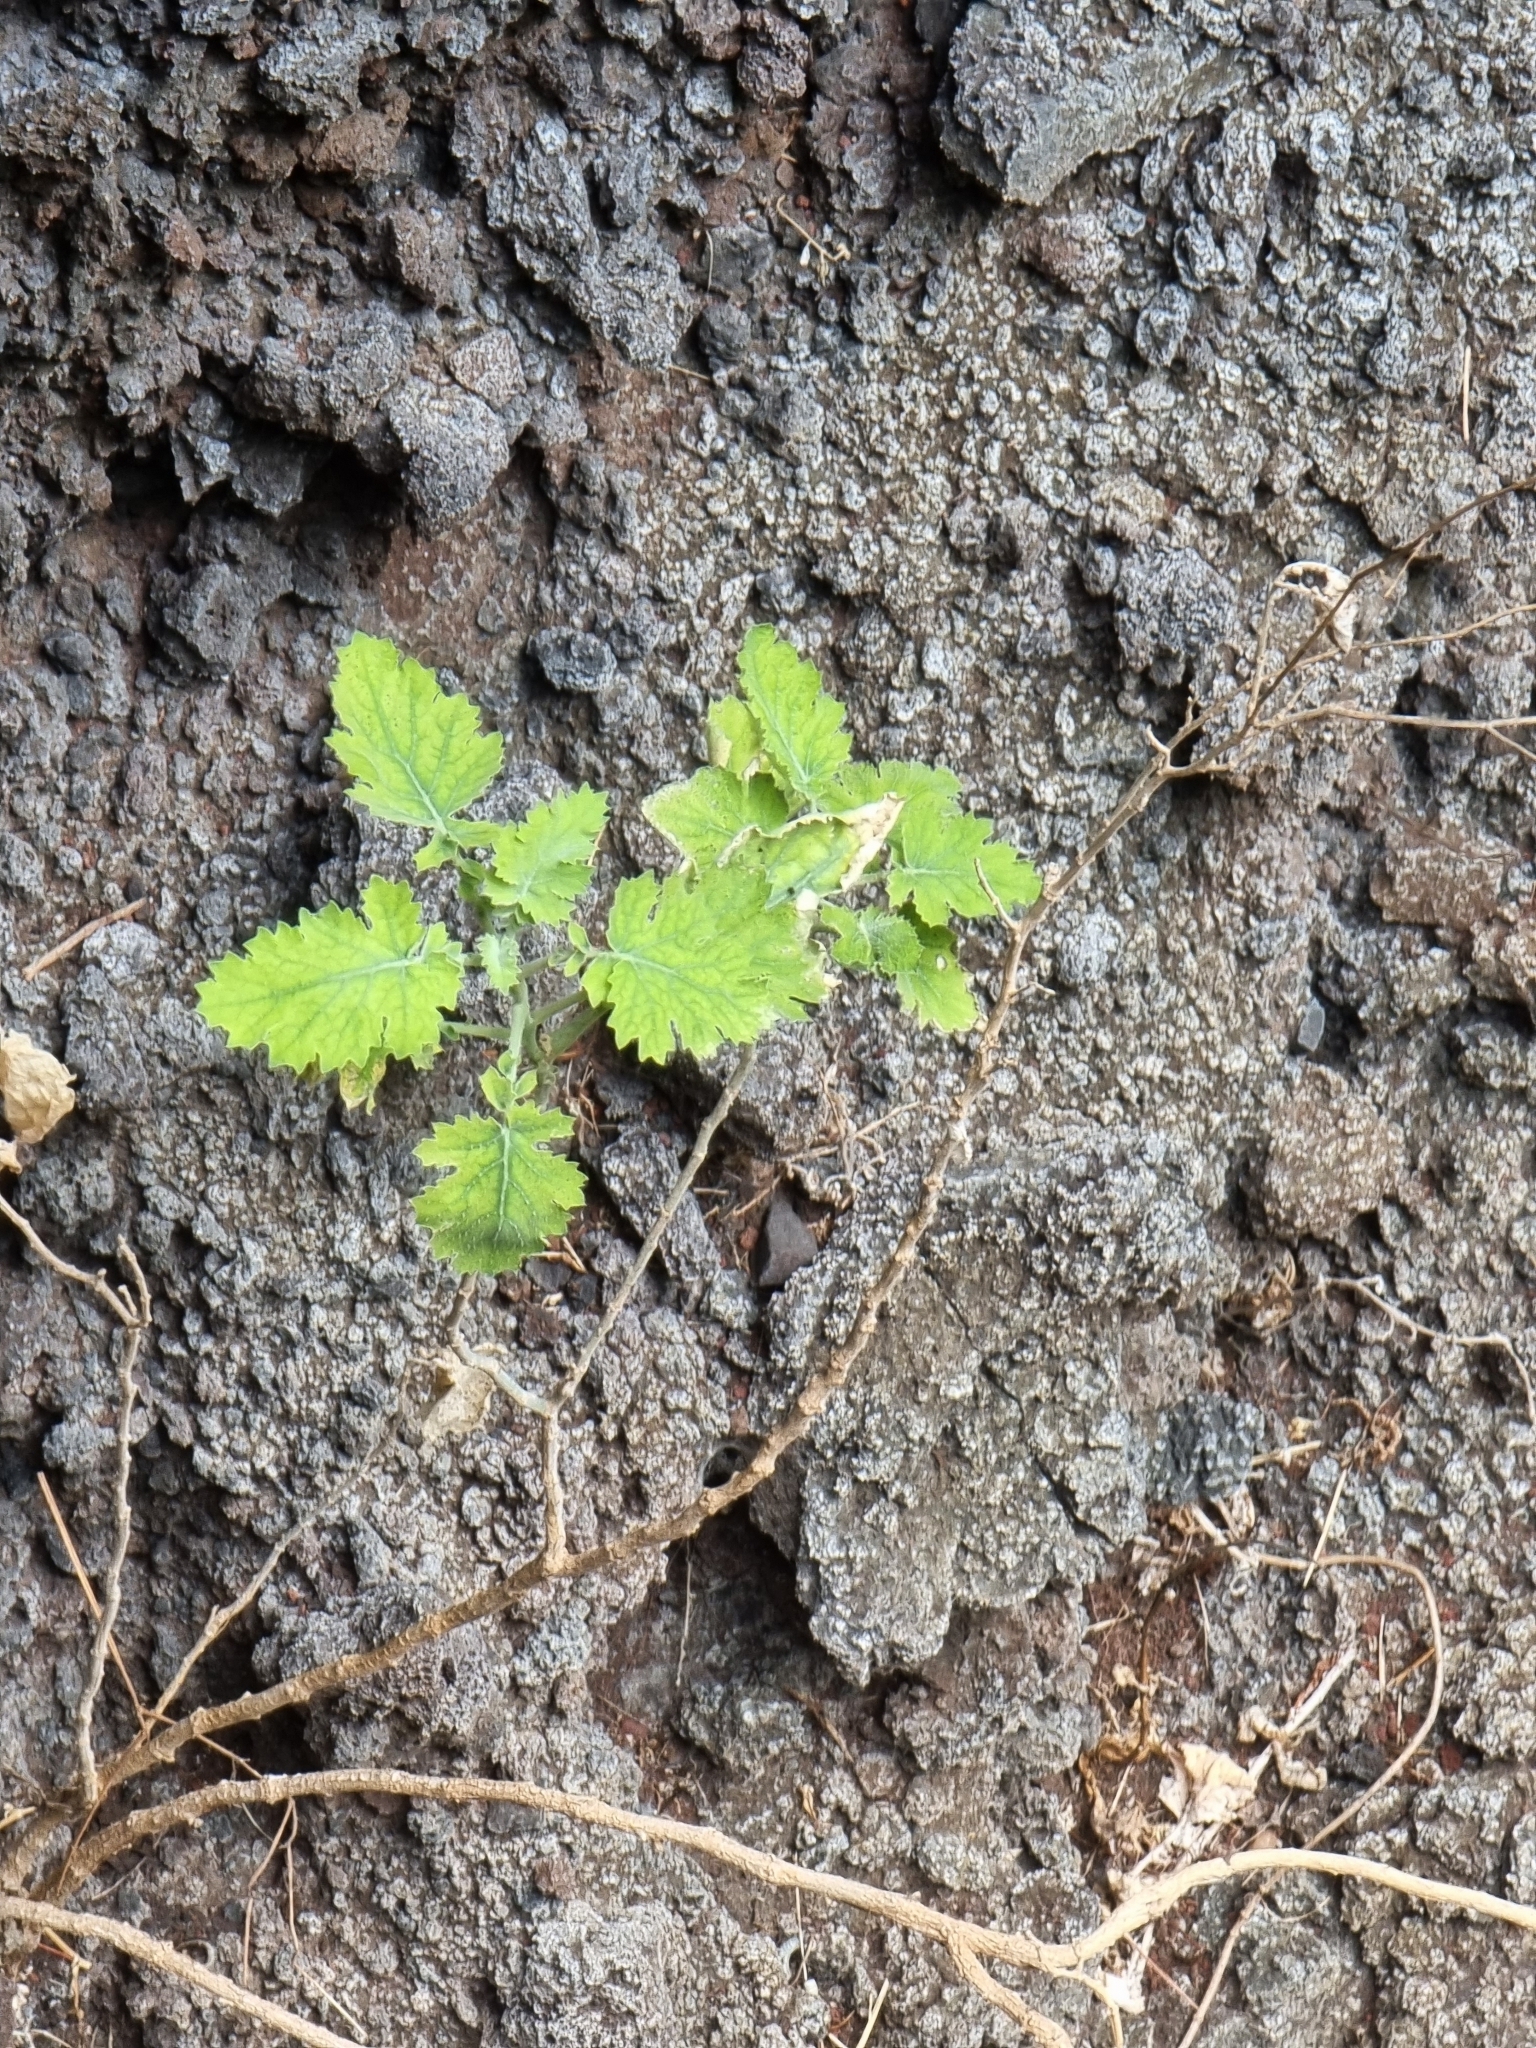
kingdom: Plantae
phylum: Tracheophyta
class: Magnoliopsida
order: Brassicales
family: Brassicaceae
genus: Crambe
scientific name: Crambe fruticosa
